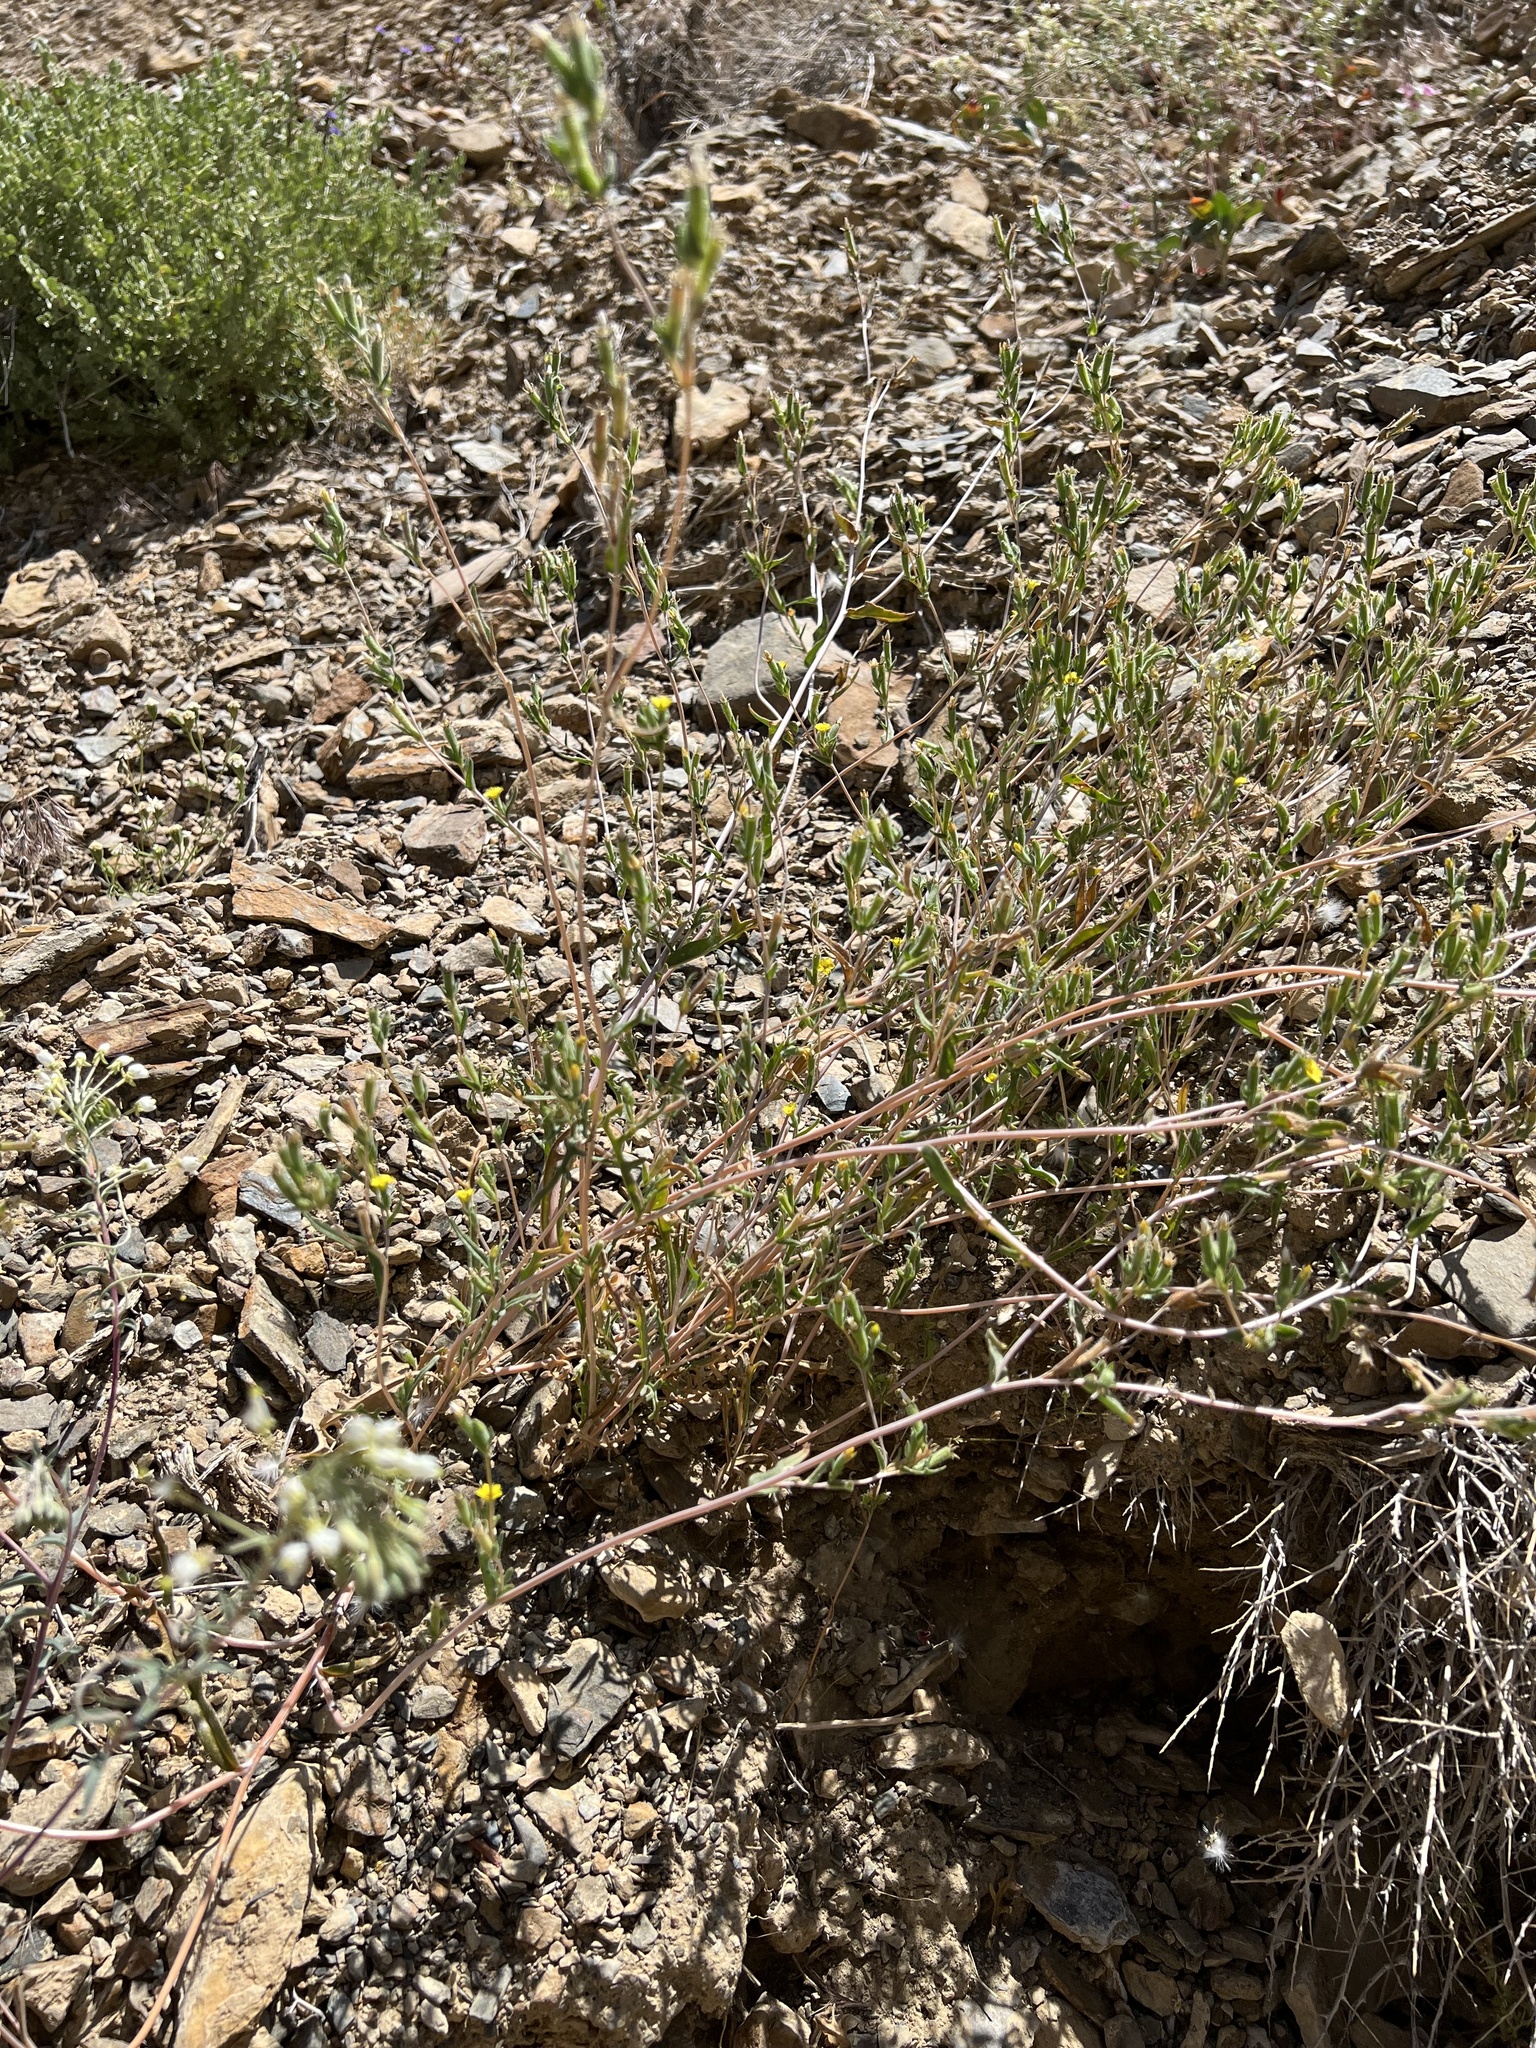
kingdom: Plantae
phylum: Tracheophyta
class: Magnoliopsida
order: Cornales
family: Loasaceae
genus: Mentzelia
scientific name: Mentzelia albicaulis
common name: White-stem blazingstar
